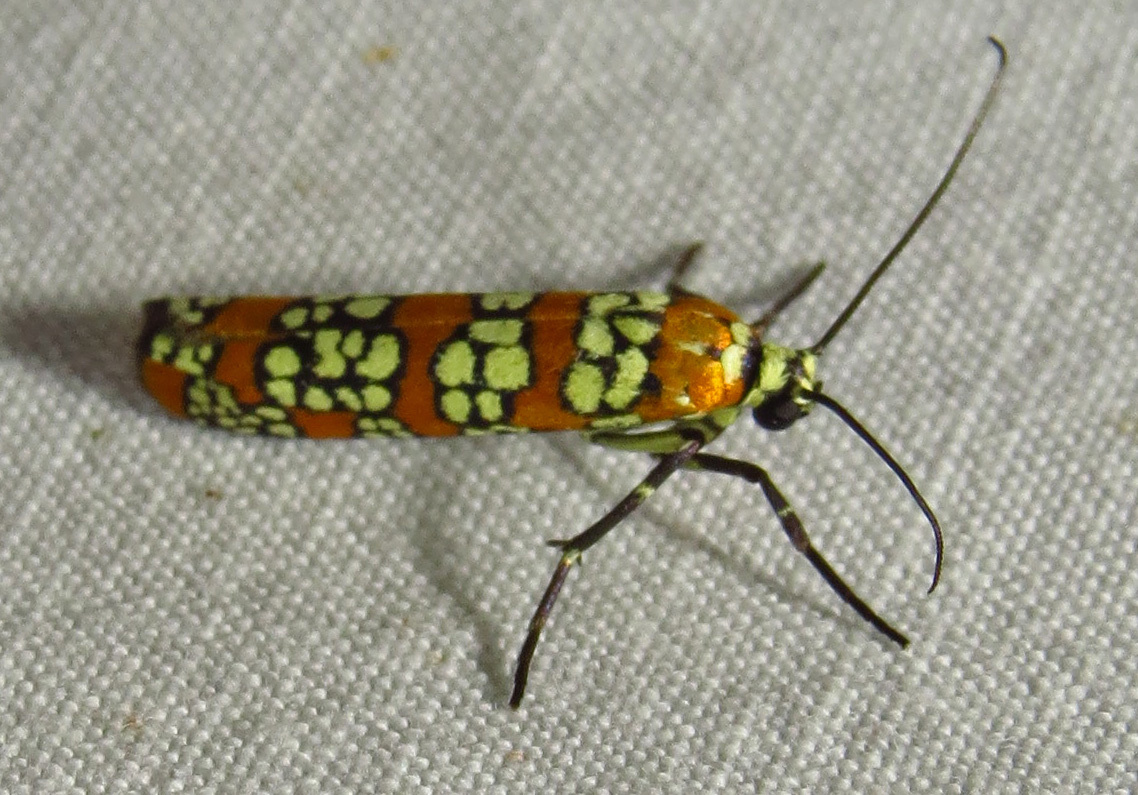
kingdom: Animalia
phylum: Arthropoda
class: Insecta
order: Lepidoptera
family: Attevidae
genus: Atteva
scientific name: Atteva punctella
